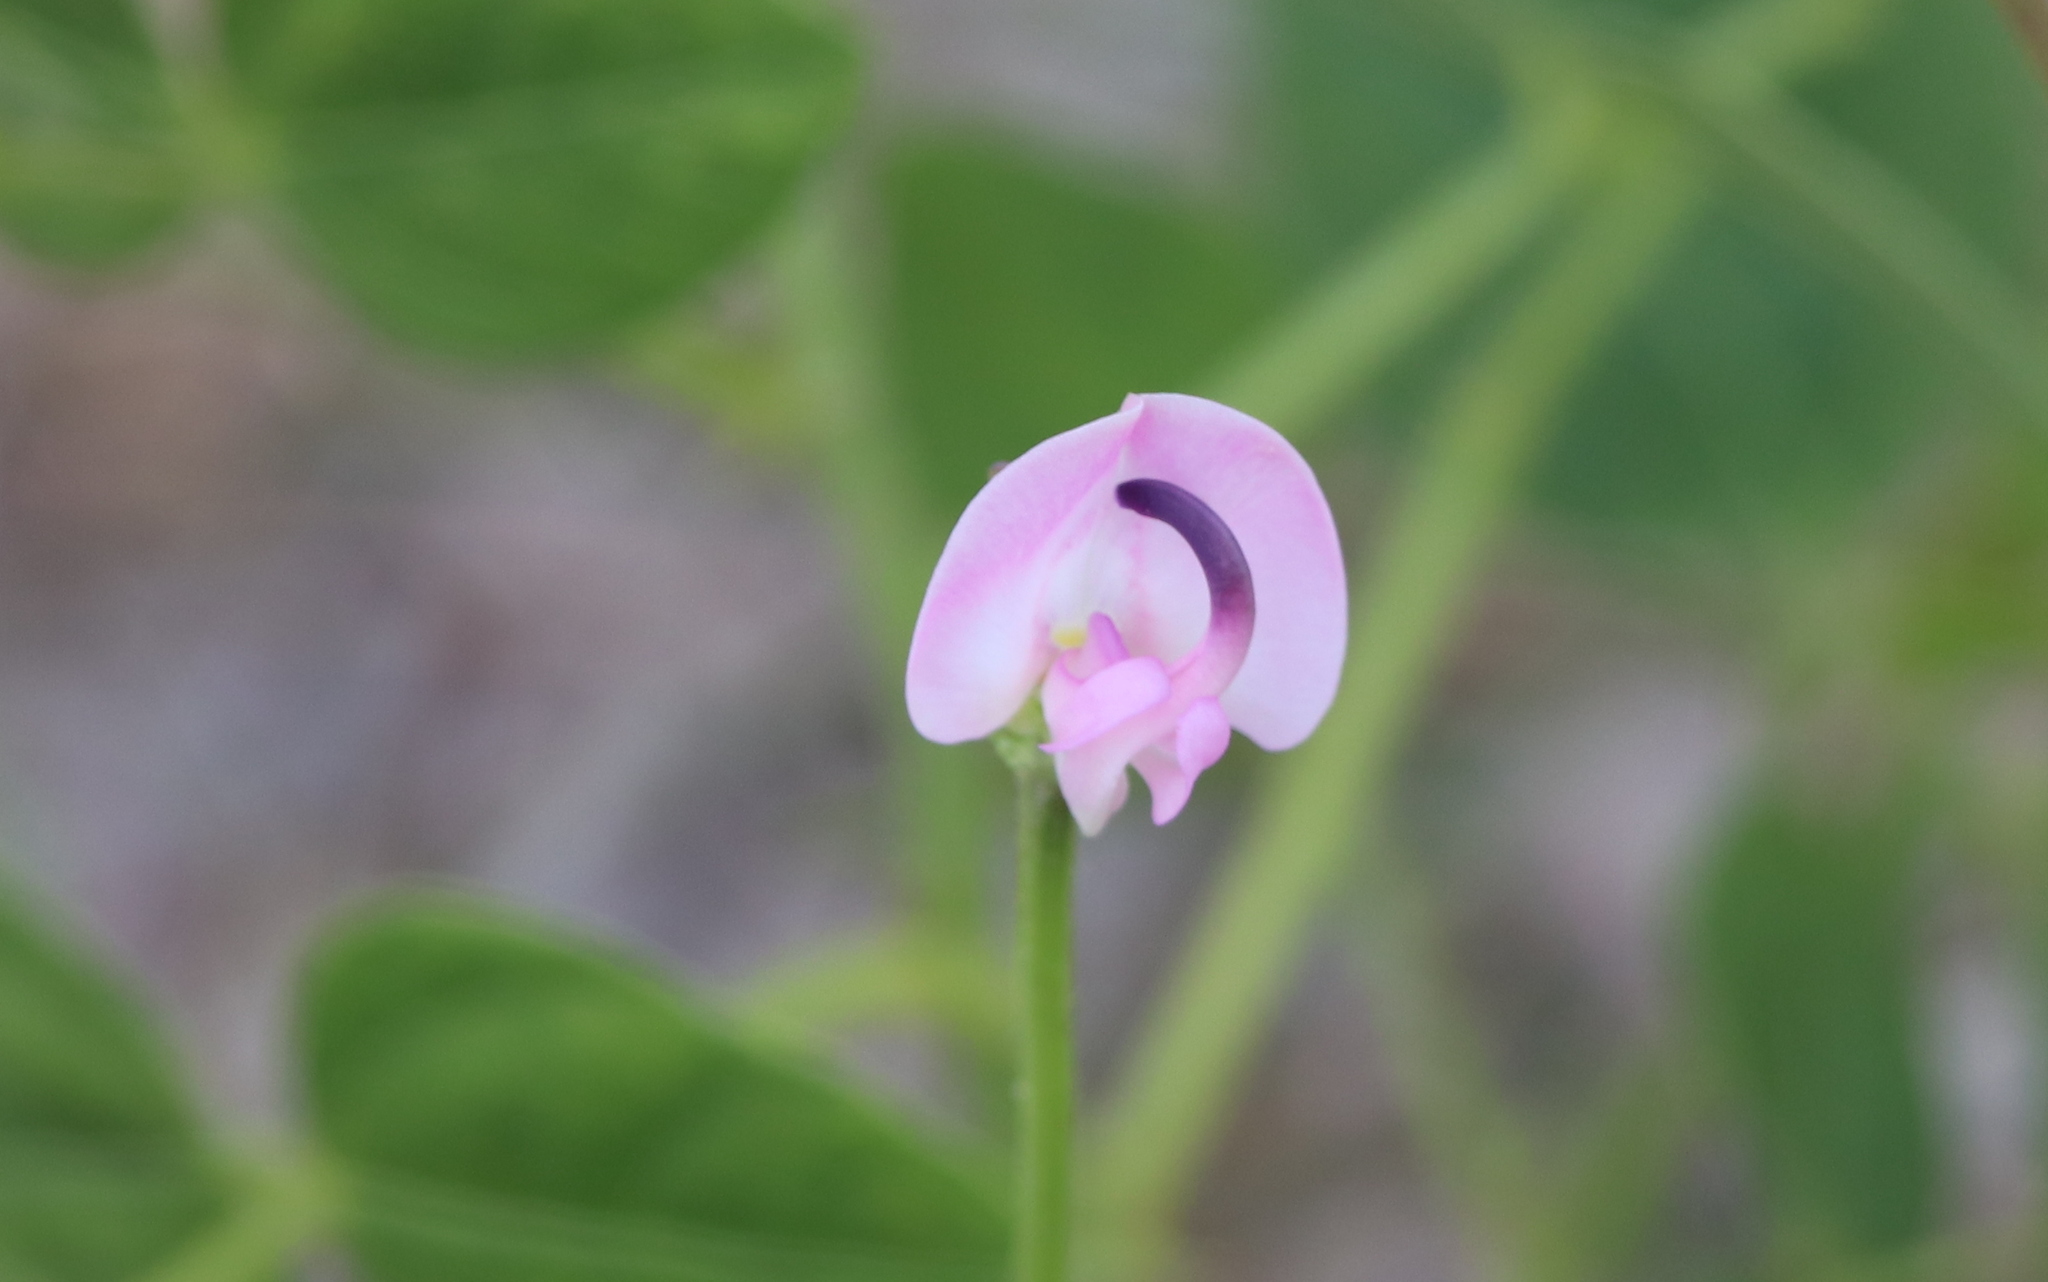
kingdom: Plantae
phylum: Tracheophyta
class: Magnoliopsida
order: Fabales
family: Fabaceae
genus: Strophostyles
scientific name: Strophostyles helvola
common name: Trailing wild bean
